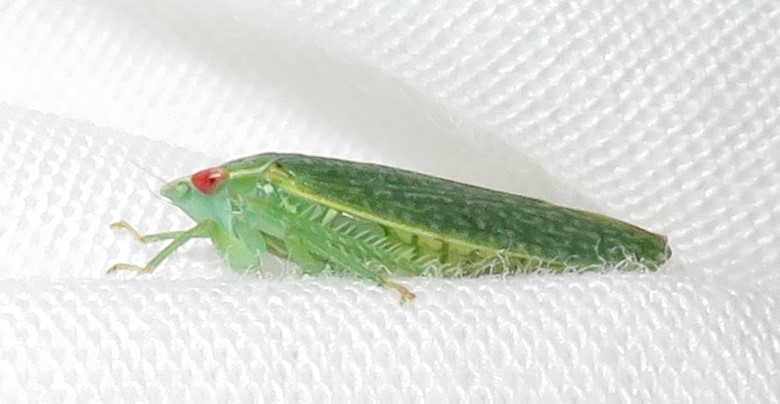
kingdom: Animalia
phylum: Arthropoda
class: Insecta
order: Hemiptera
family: Cicadellidae
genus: Rugosana
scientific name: Rugosana querci
